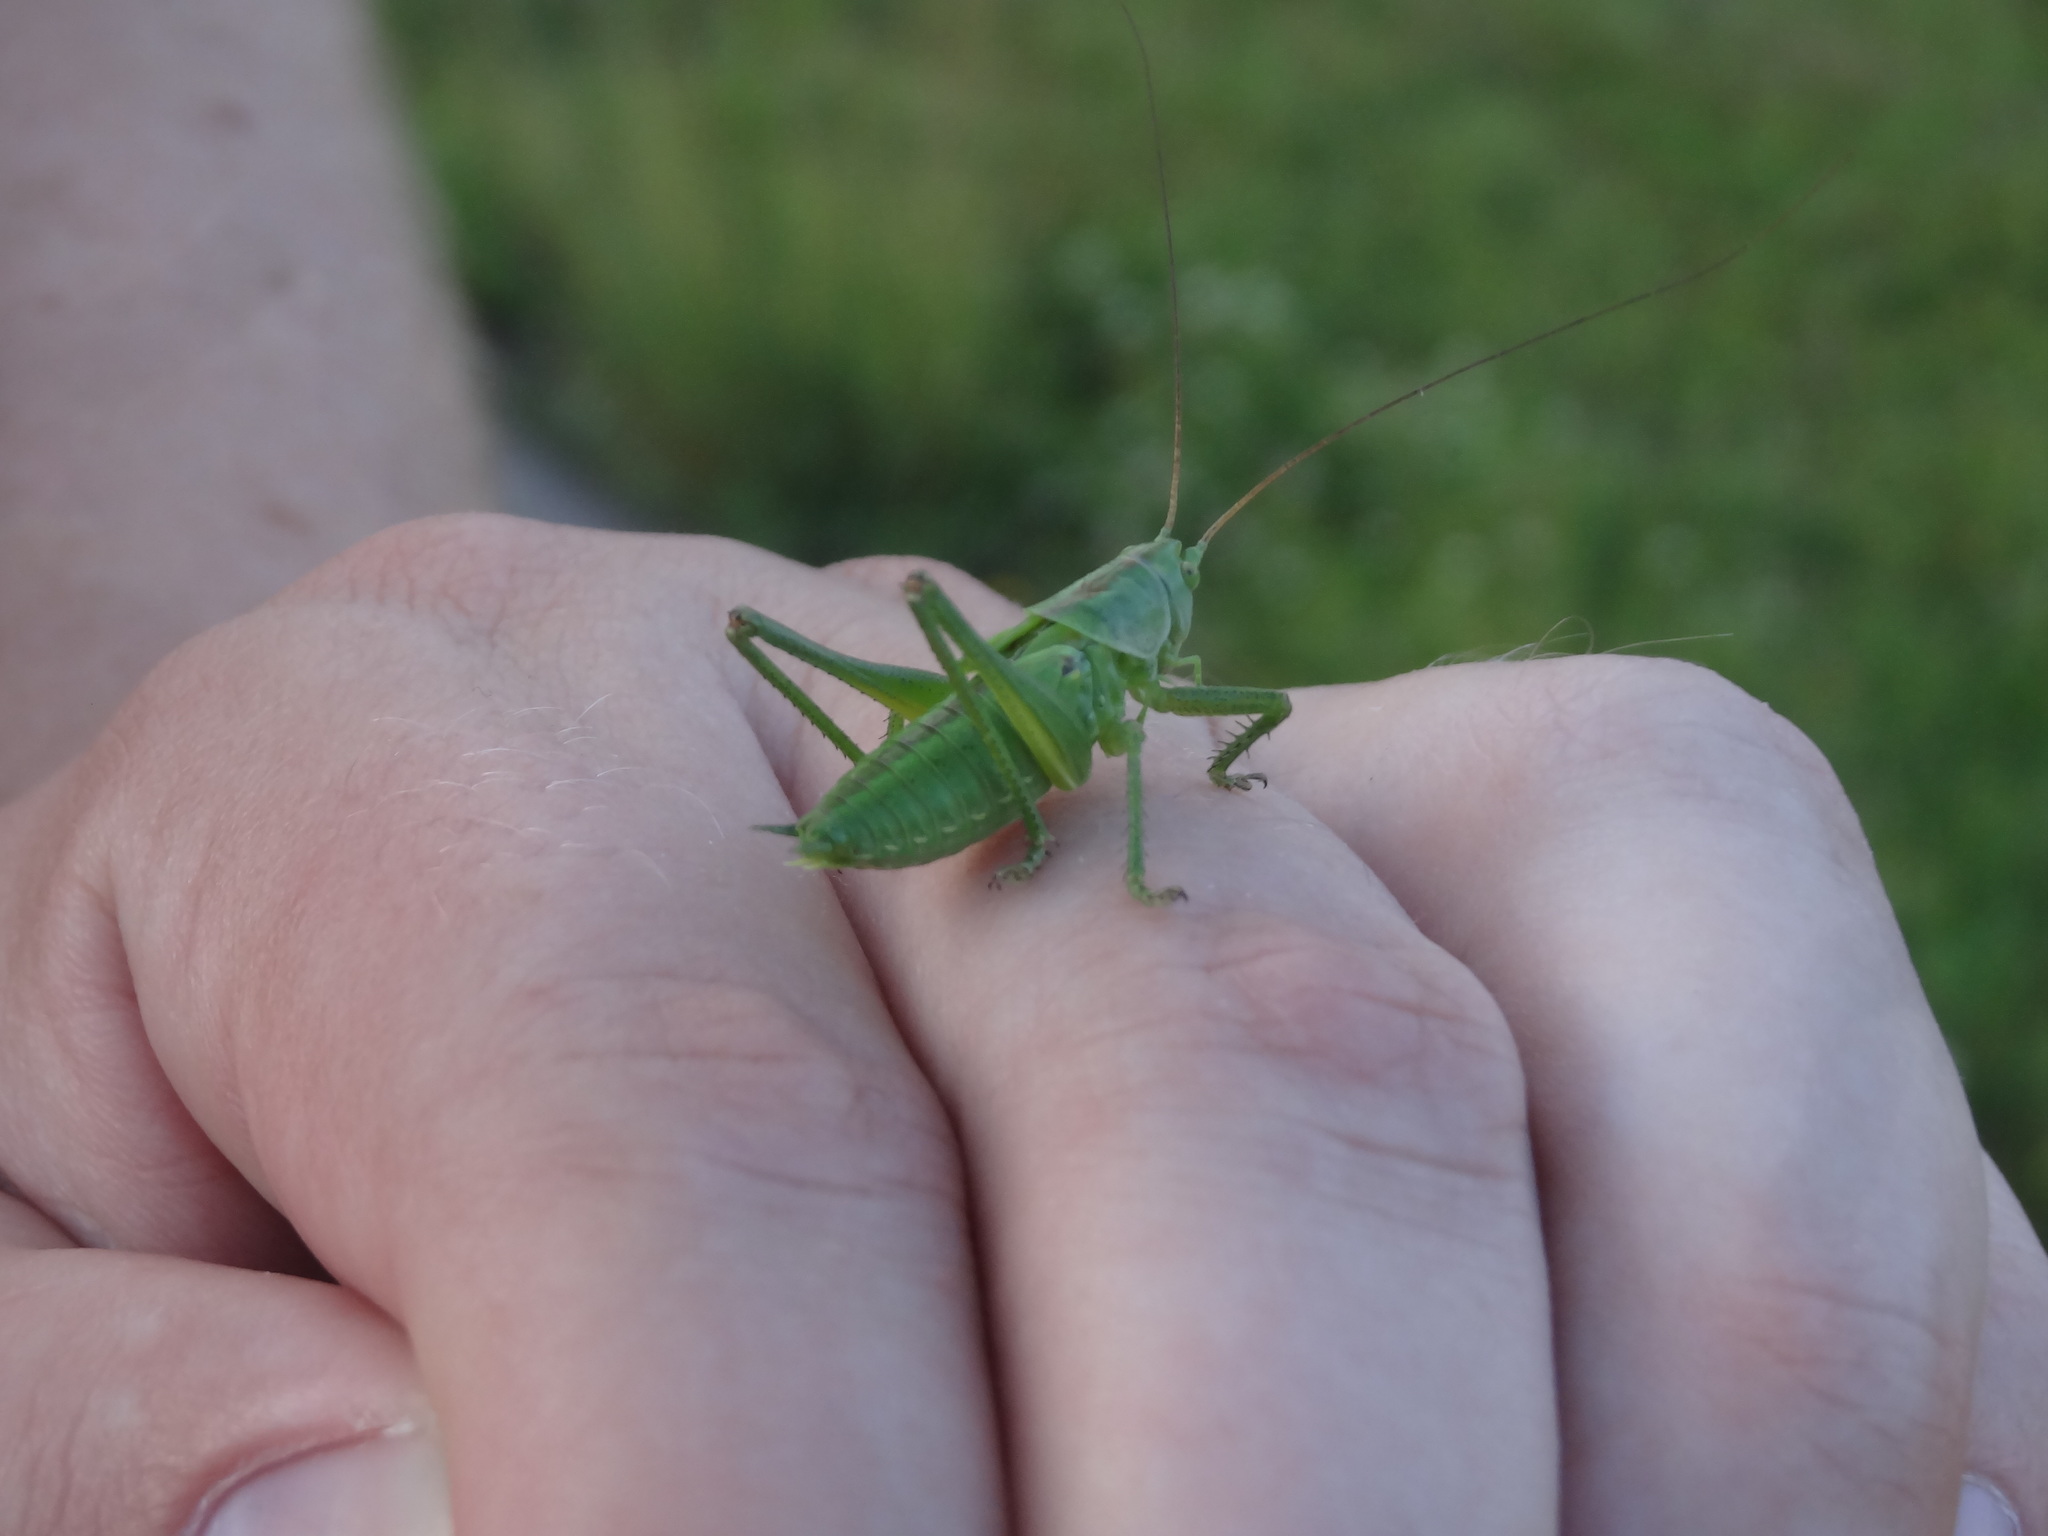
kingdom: Animalia
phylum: Arthropoda
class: Insecta
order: Orthoptera
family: Tettigoniidae
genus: Tettigonia
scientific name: Tettigonia viridissima
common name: Great green bush-cricket
